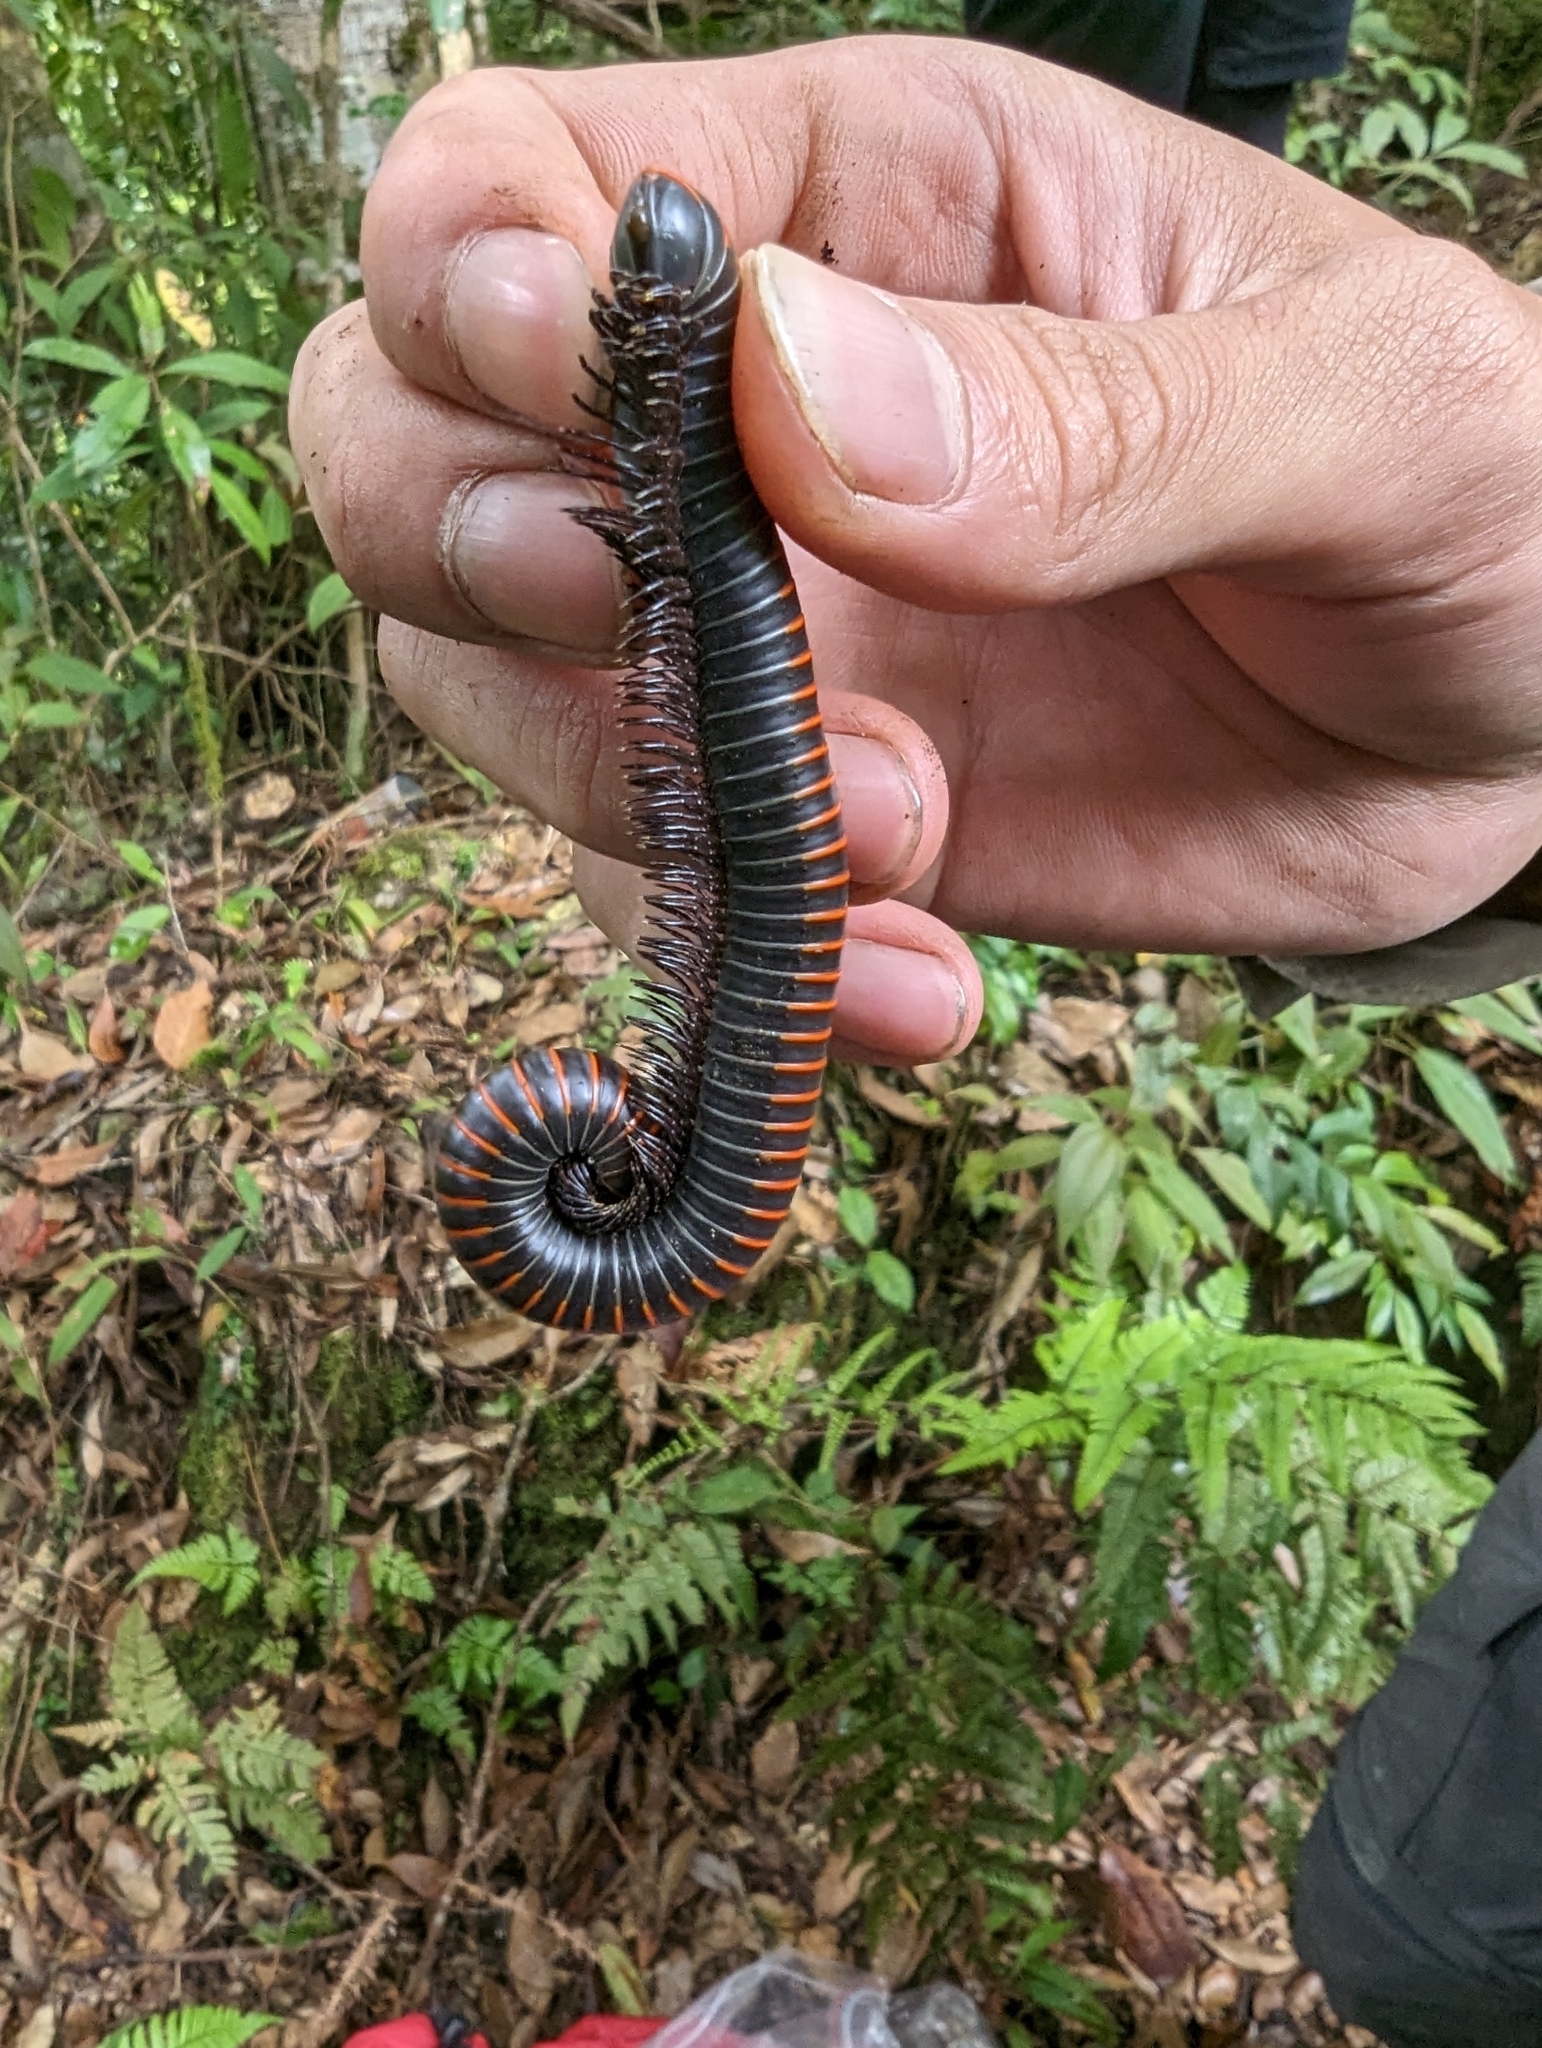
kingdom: Animalia
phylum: Arthropoda
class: Diplopoda
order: Spirobolida
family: Spirobolidae
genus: Spirobolus
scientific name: Spirobolus formosae
